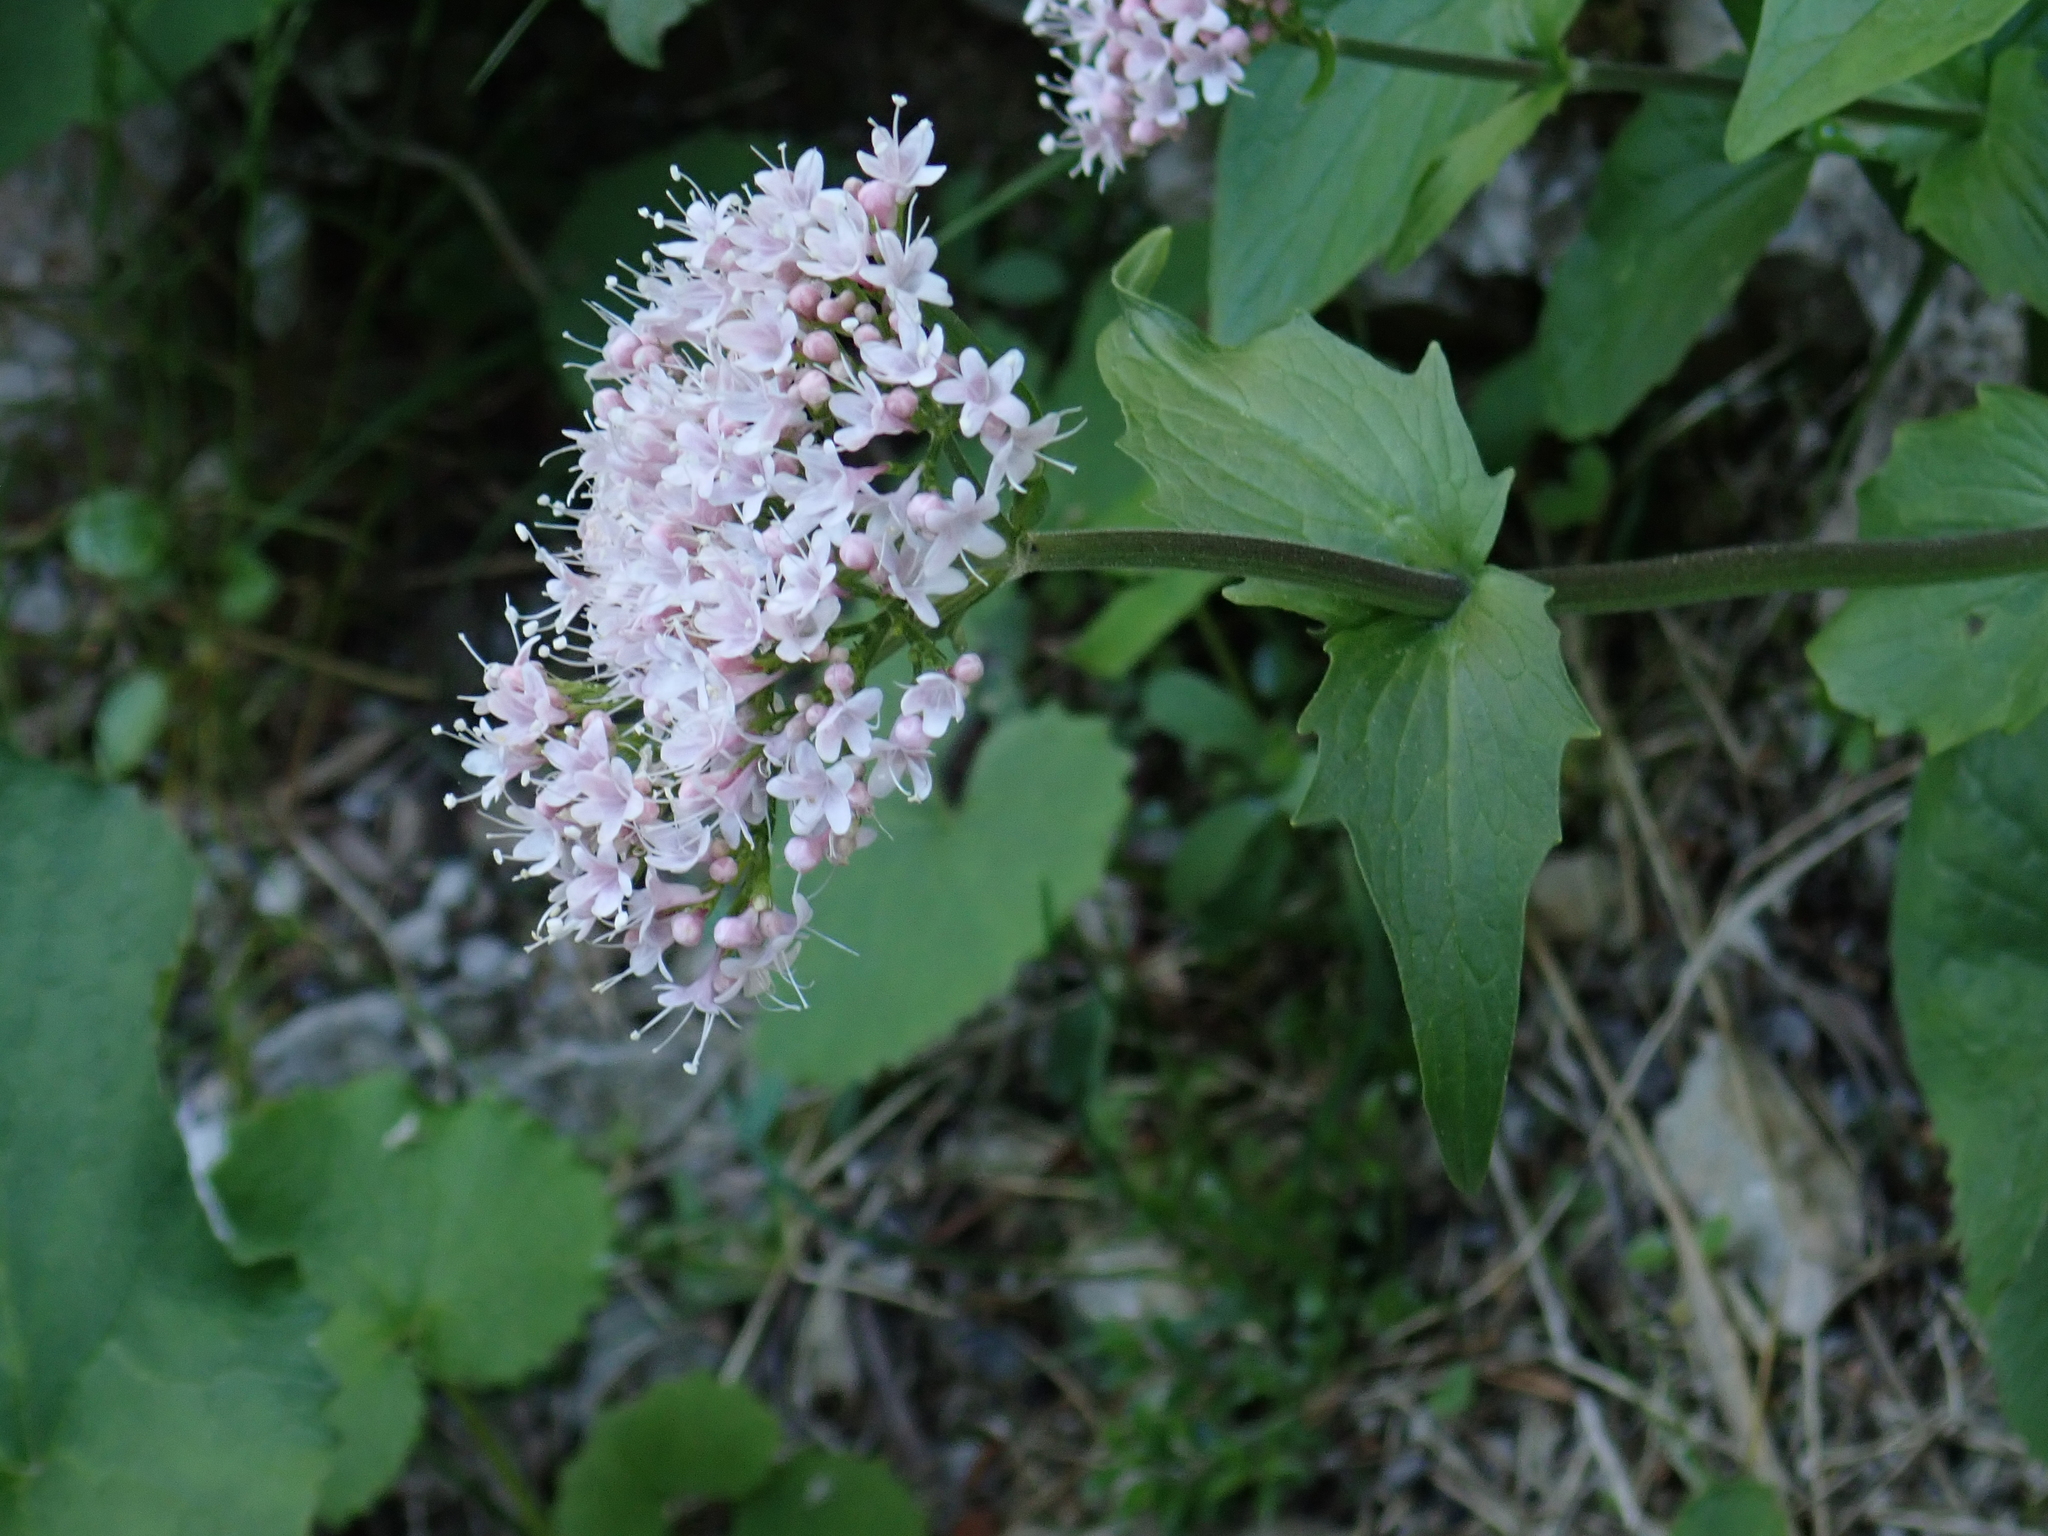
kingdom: Plantae
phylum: Tracheophyta
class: Magnoliopsida
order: Dipsacales
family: Caprifoliaceae
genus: Valeriana
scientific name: Valeriana montana
